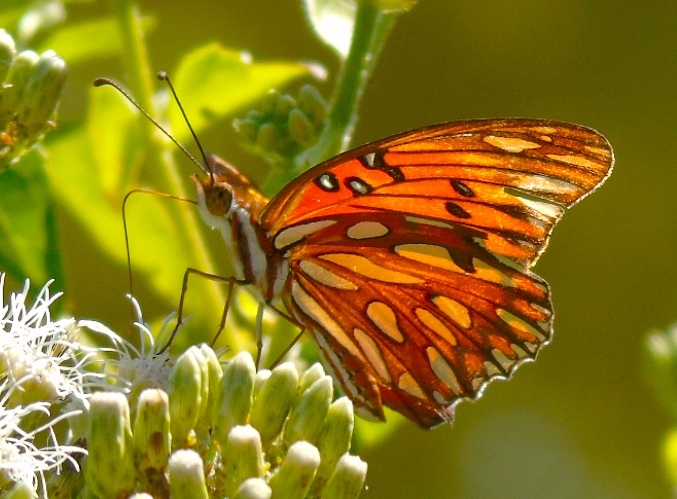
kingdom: Animalia
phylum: Arthropoda
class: Insecta
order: Lepidoptera
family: Nymphalidae
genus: Dione
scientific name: Dione vanillae
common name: Gulf fritillary
